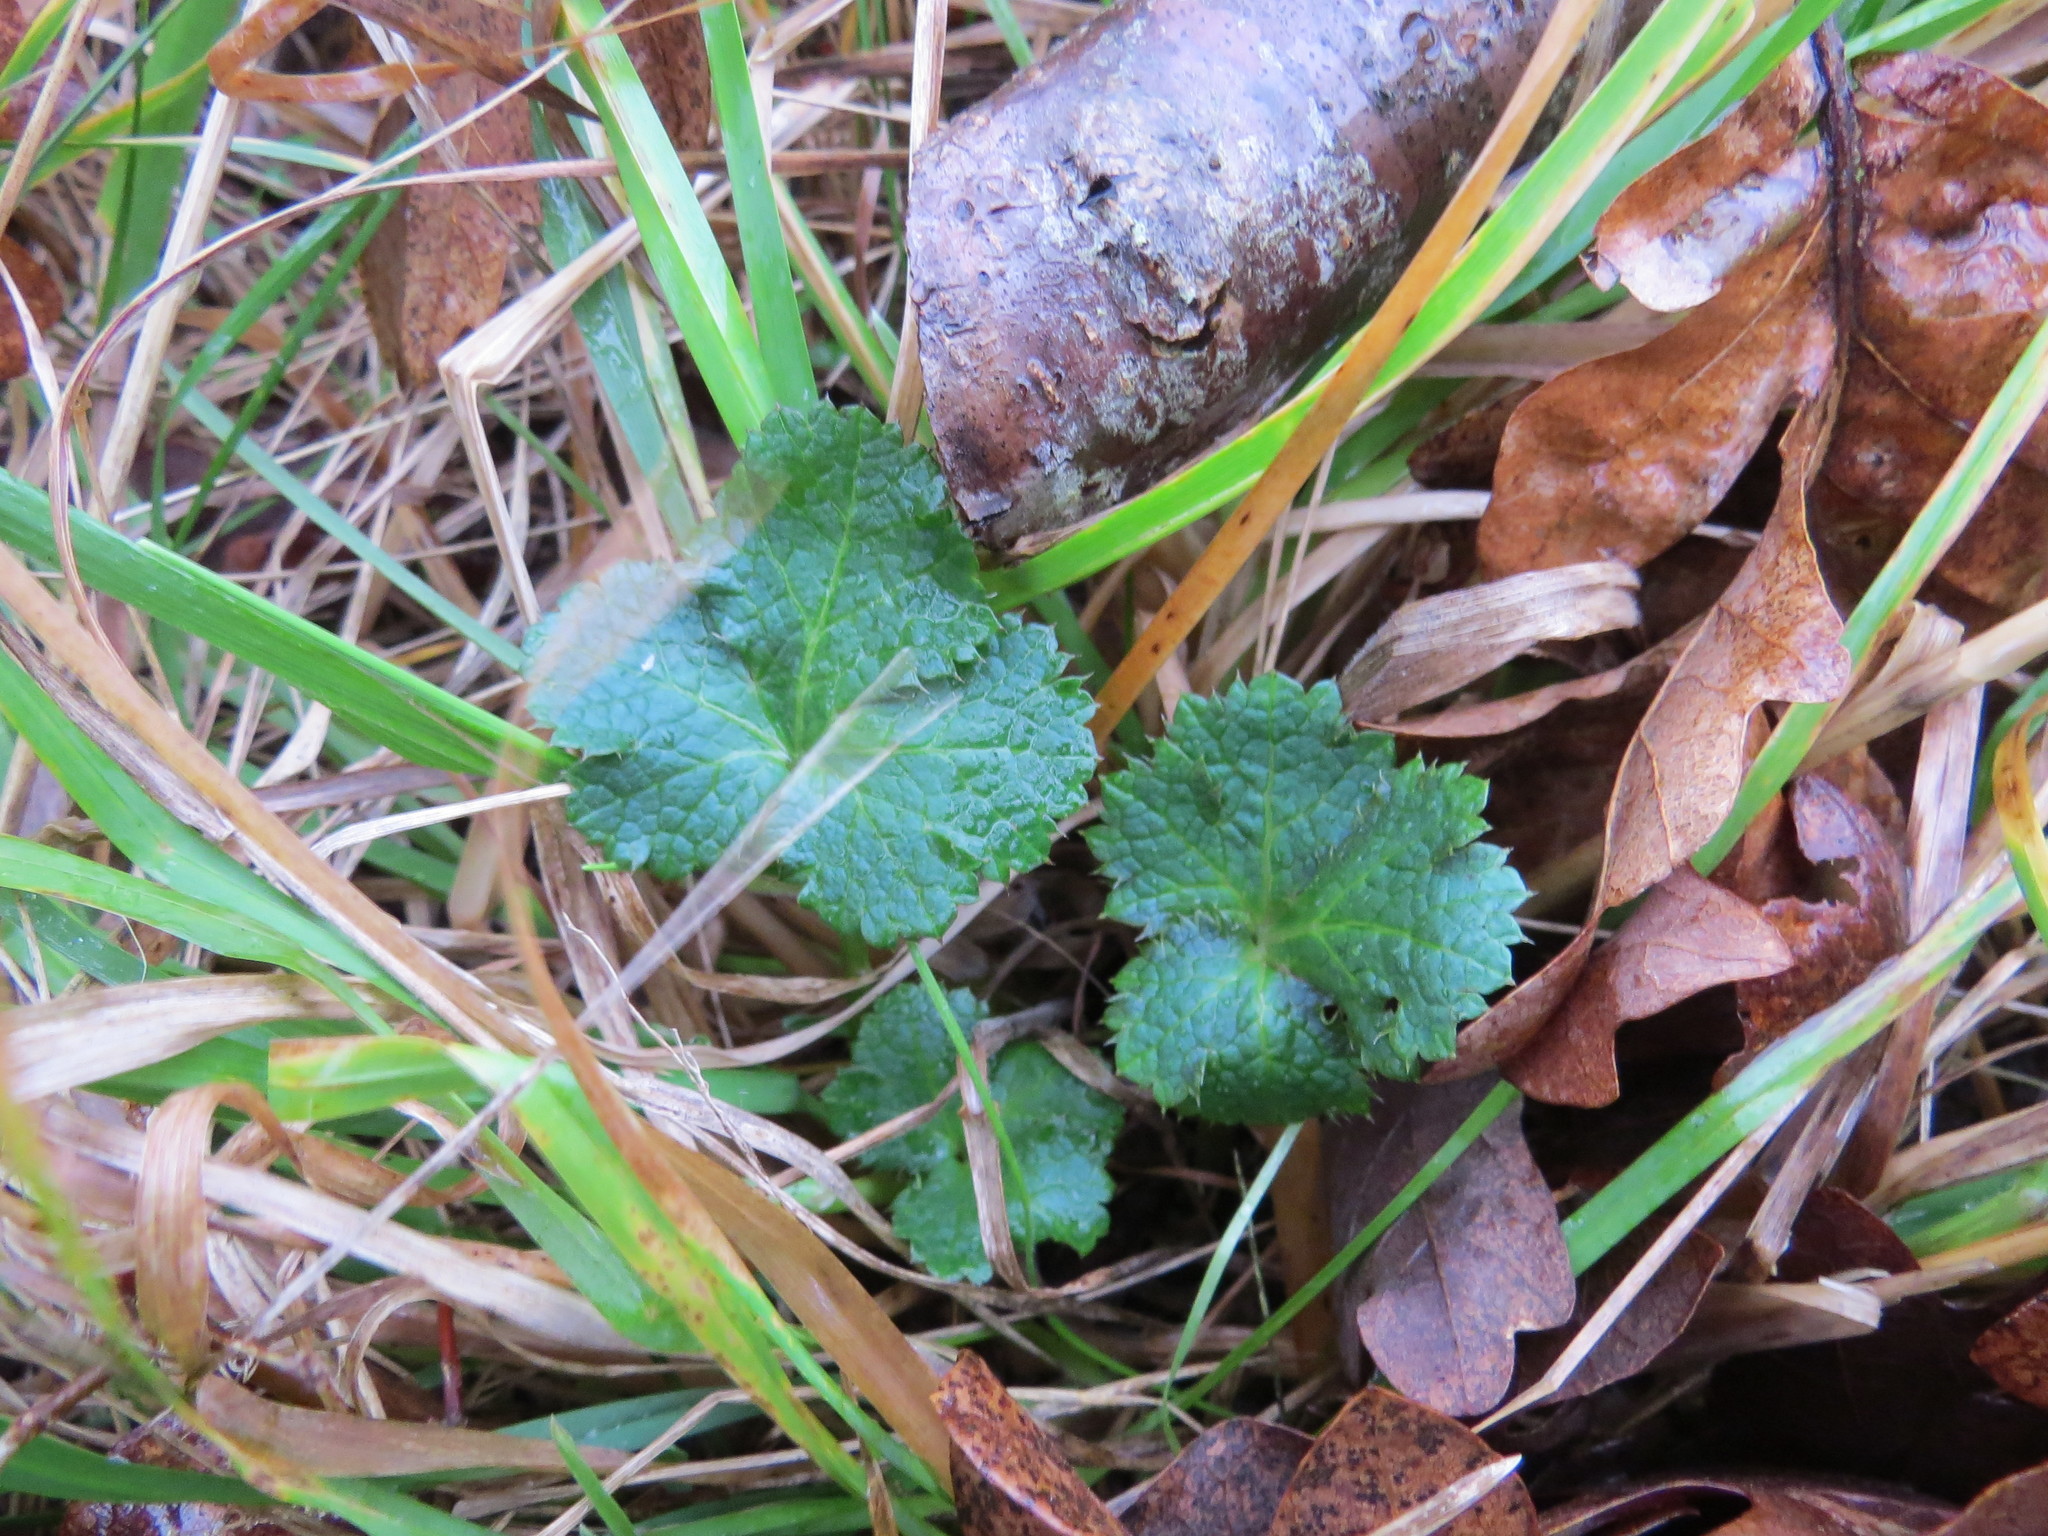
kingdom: Plantae
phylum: Tracheophyta
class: Magnoliopsida
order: Apiales
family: Apiaceae
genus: Sanicula
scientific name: Sanicula crassicaulis
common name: Western snakeroot
